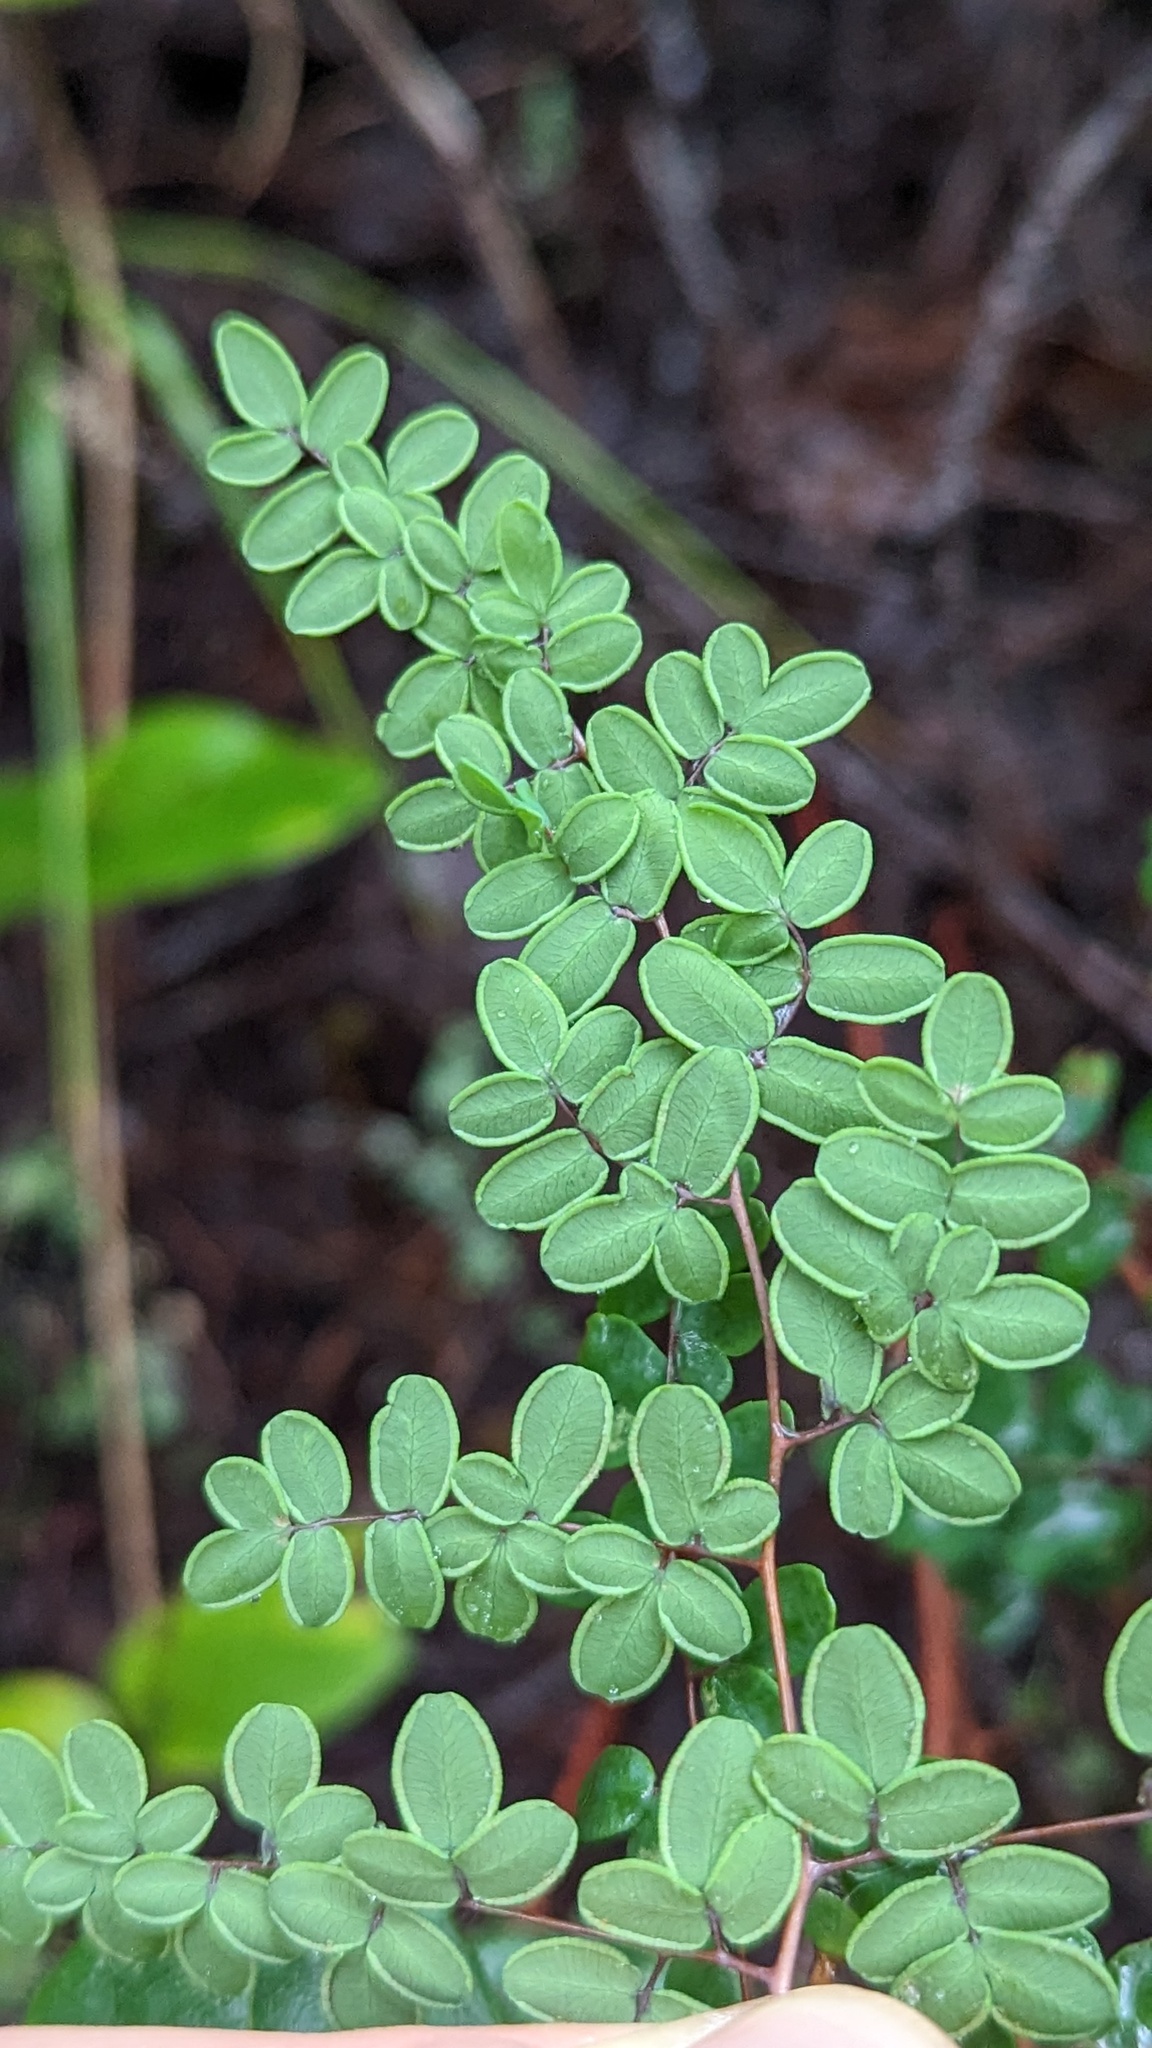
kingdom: Plantae
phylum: Tracheophyta
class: Polypodiopsida
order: Polypodiales
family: Pteridaceae
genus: Pellaea
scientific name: Pellaea andromedifolia
